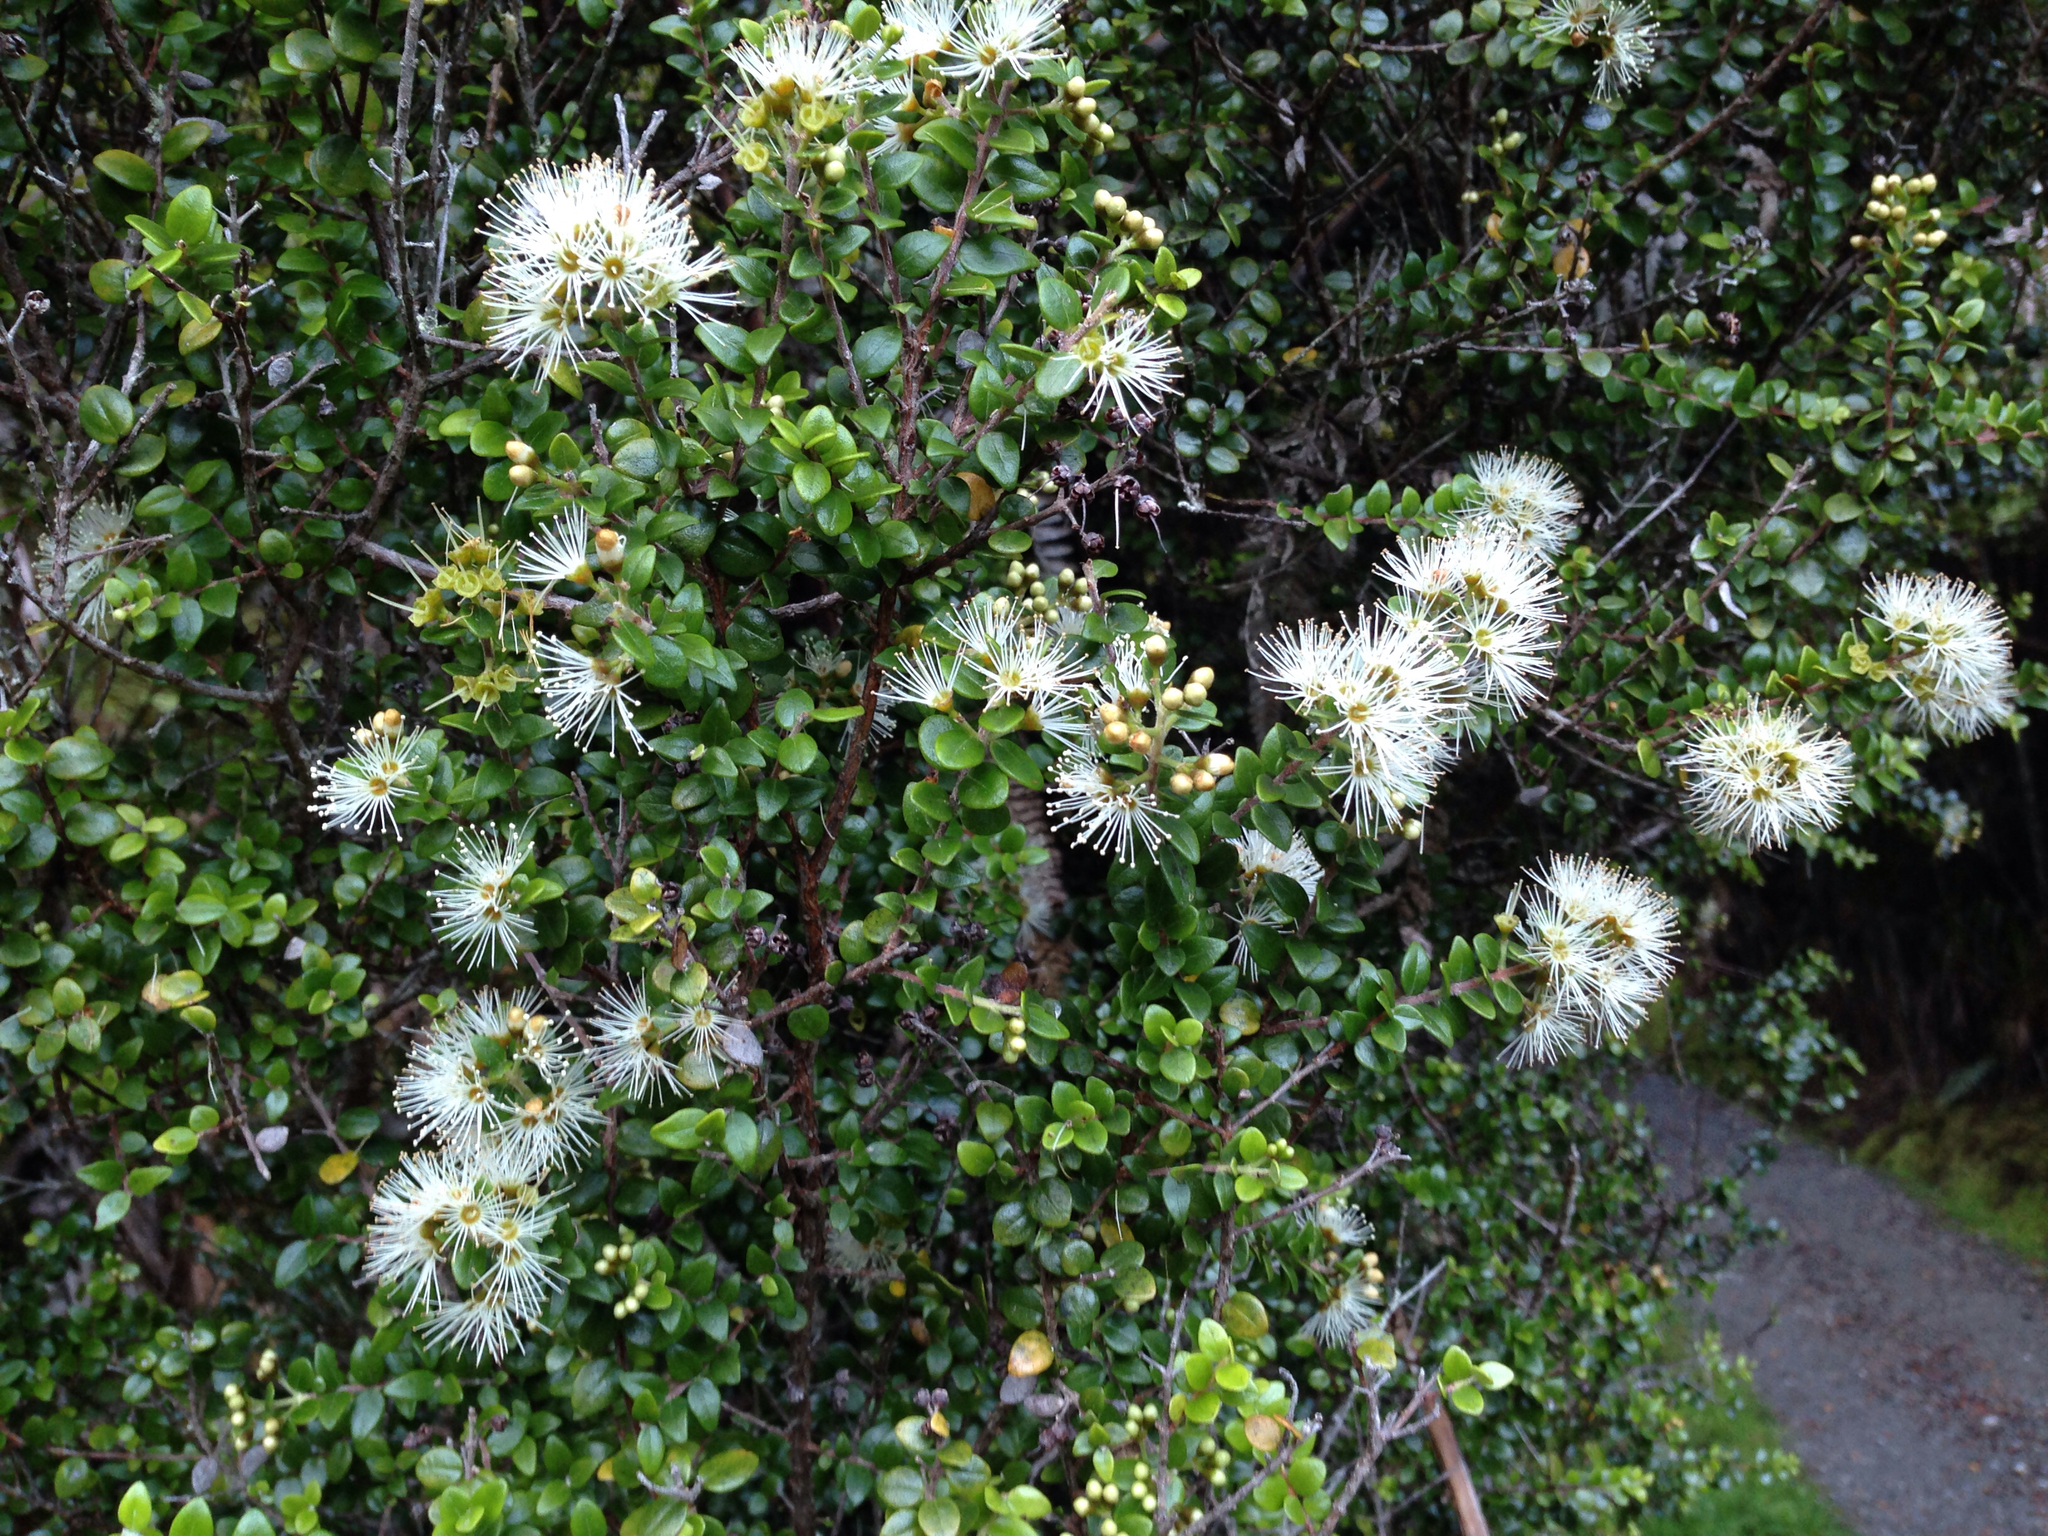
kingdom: Plantae
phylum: Tracheophyta
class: Magnoliopsida
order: Myrtales
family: Myrtaceae
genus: Metrosideros
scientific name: Metrosideros perforata
